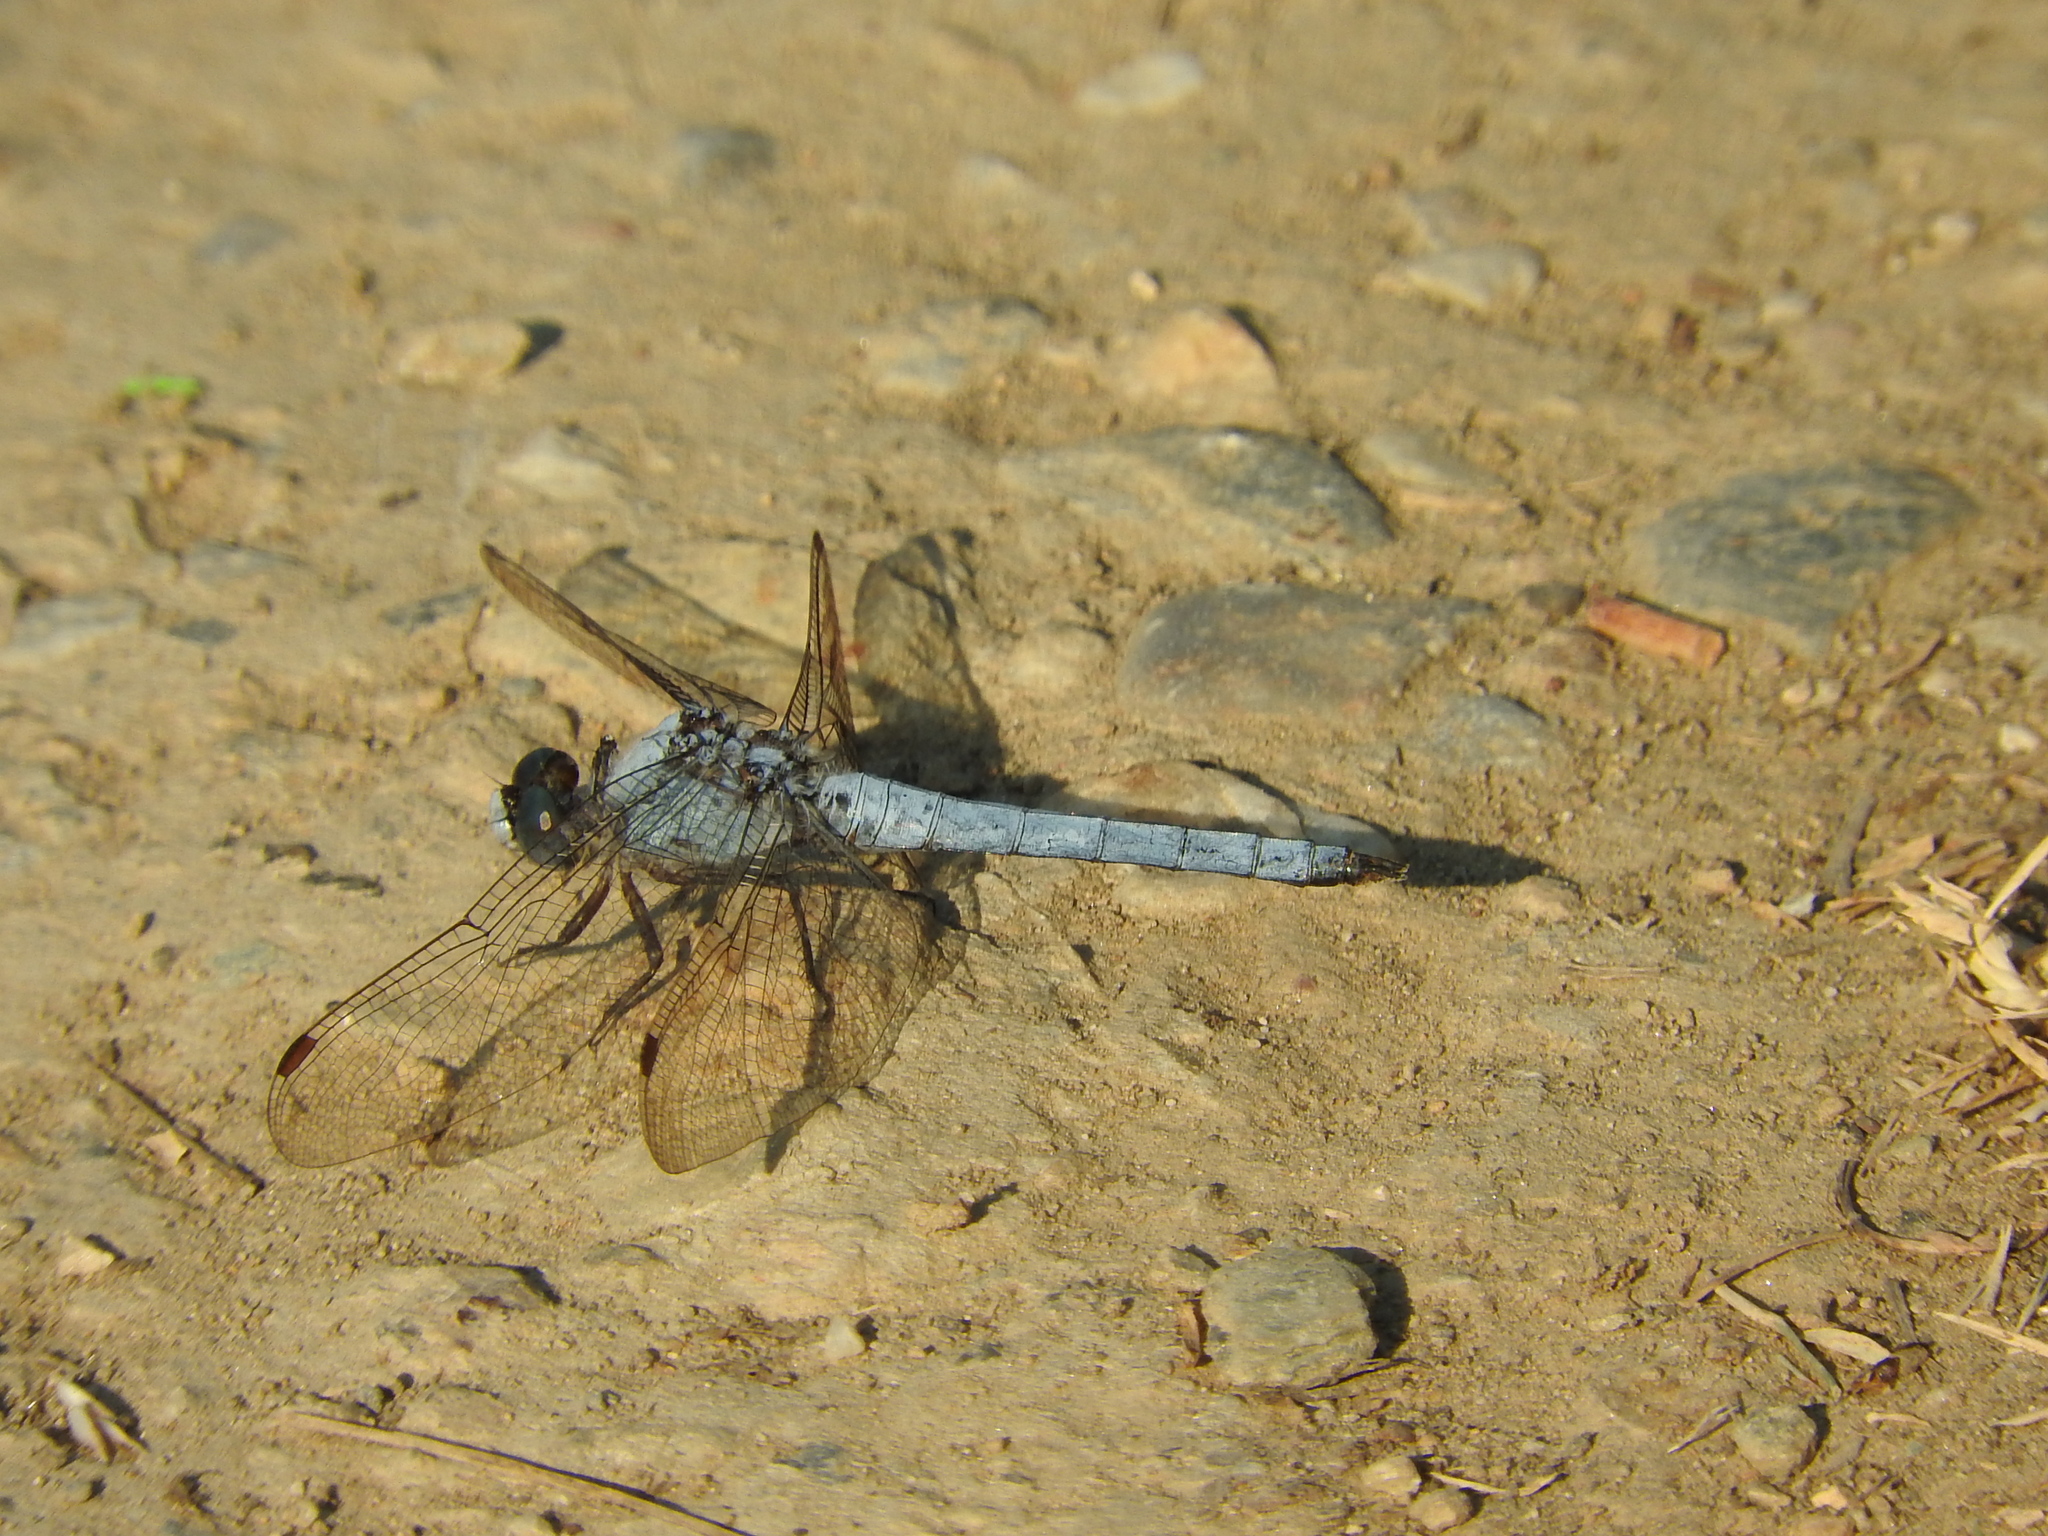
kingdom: Animalia
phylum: Arthropoda
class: Insecta
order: Odonata
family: Libellulidae
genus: Orthetrum
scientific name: Orthetrum brunneum
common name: Southern skimmer
